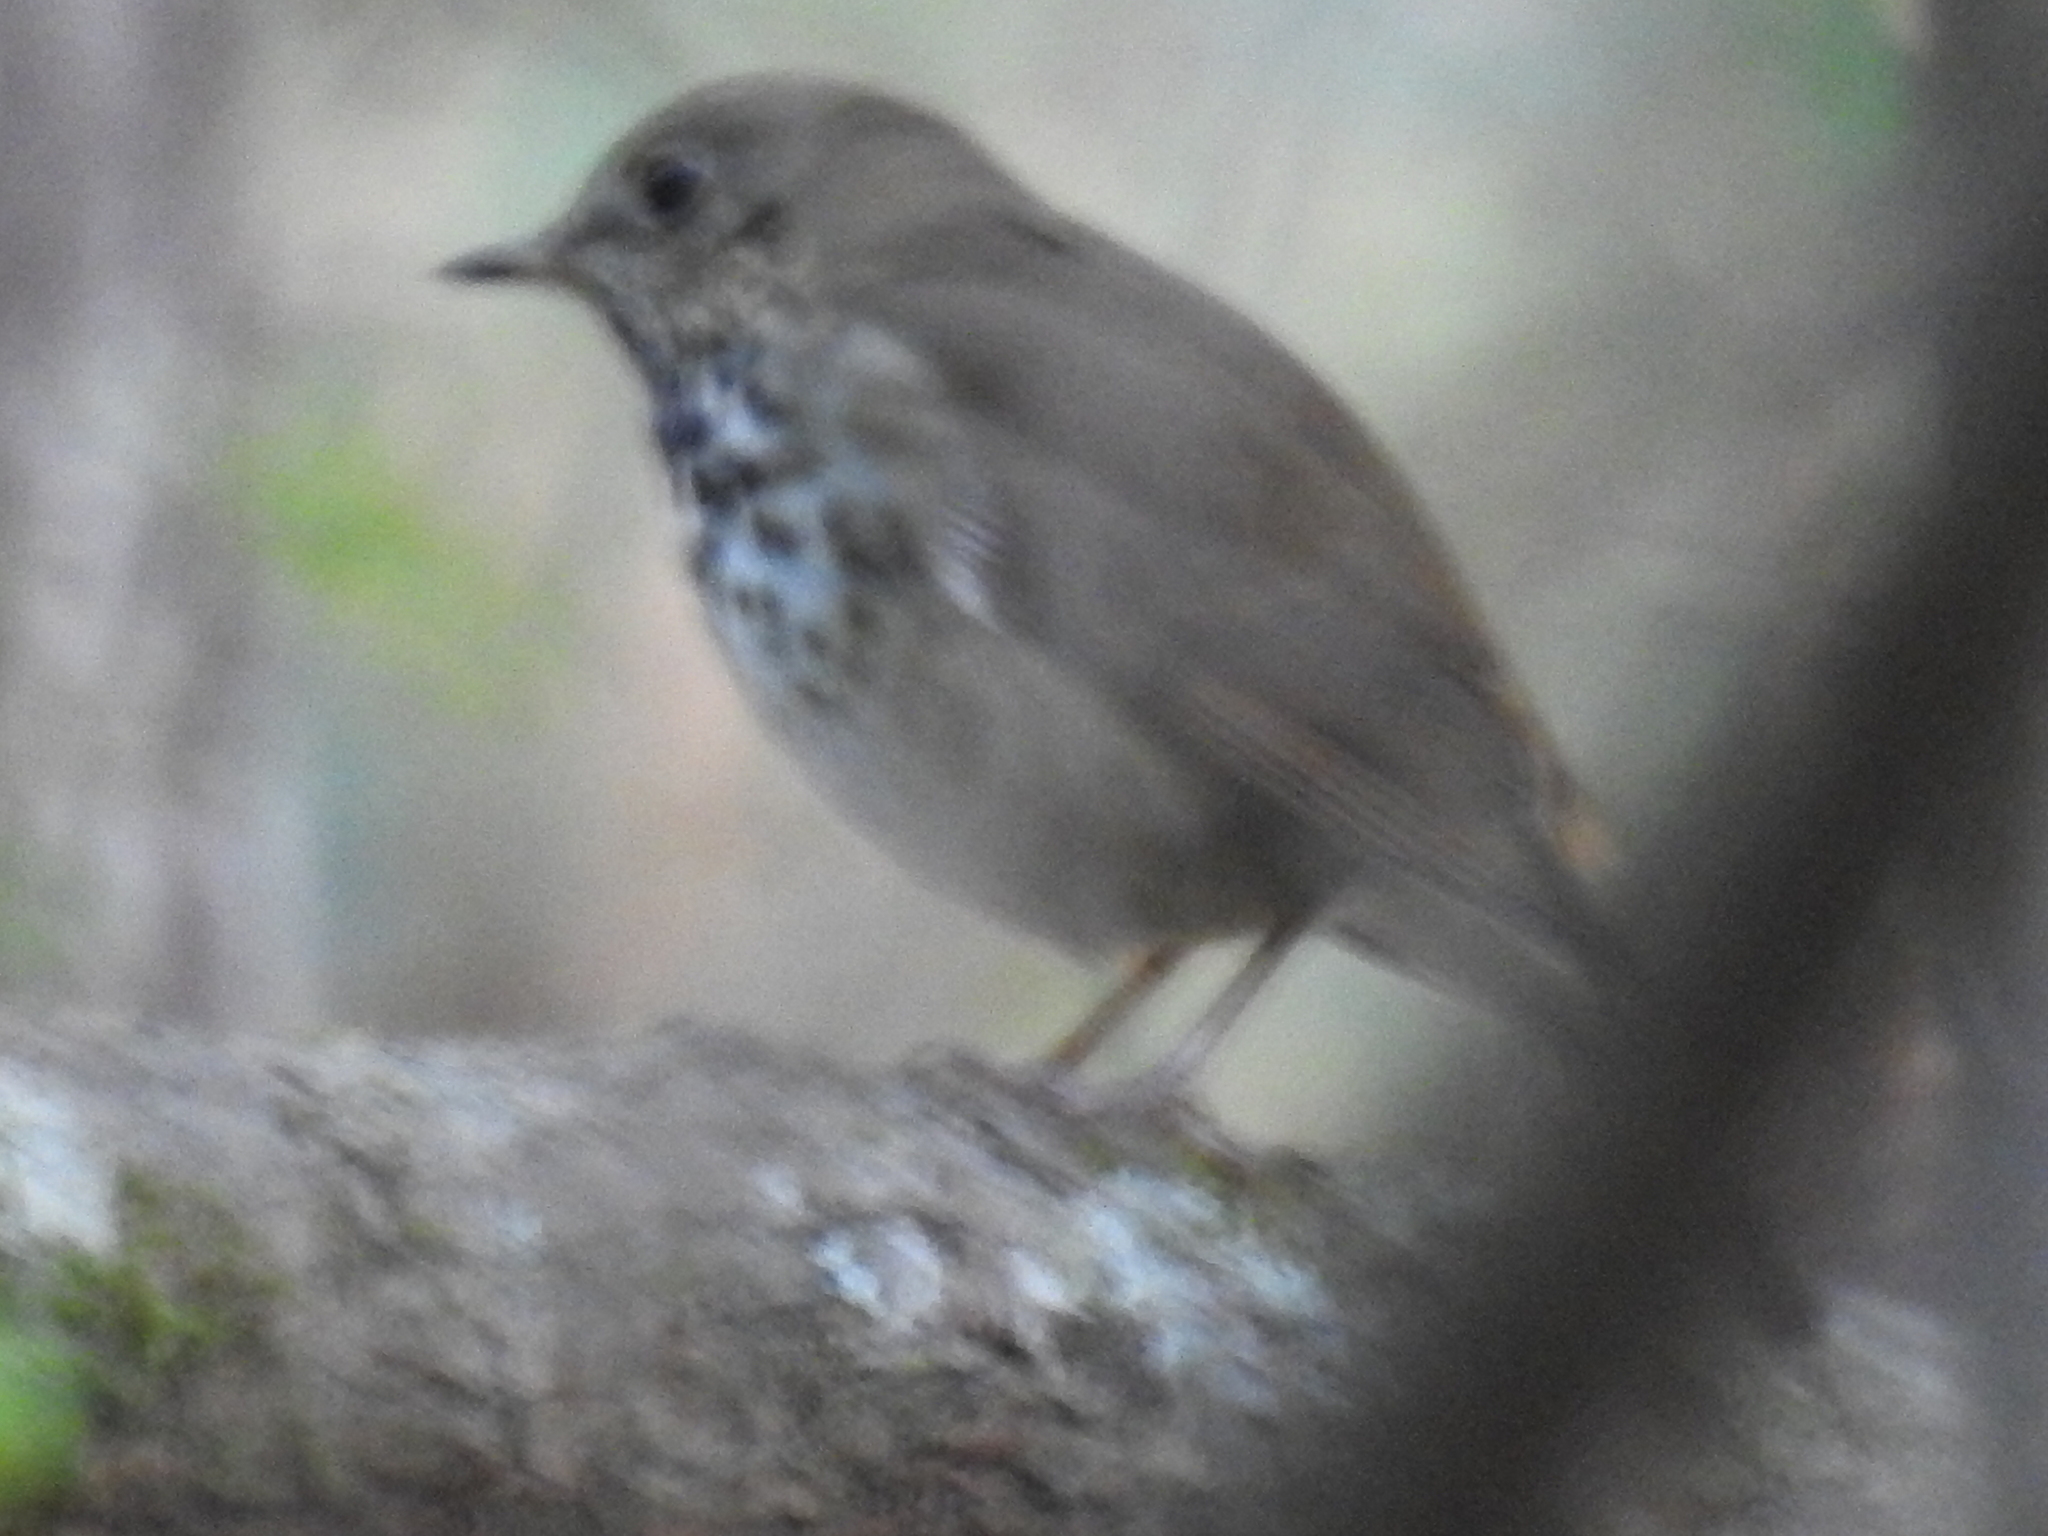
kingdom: Animalia
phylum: Chordata
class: Aves
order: Passeriformes
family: Turdidae
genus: Catharus
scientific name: Catharus guttatus
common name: Hermit thrush
